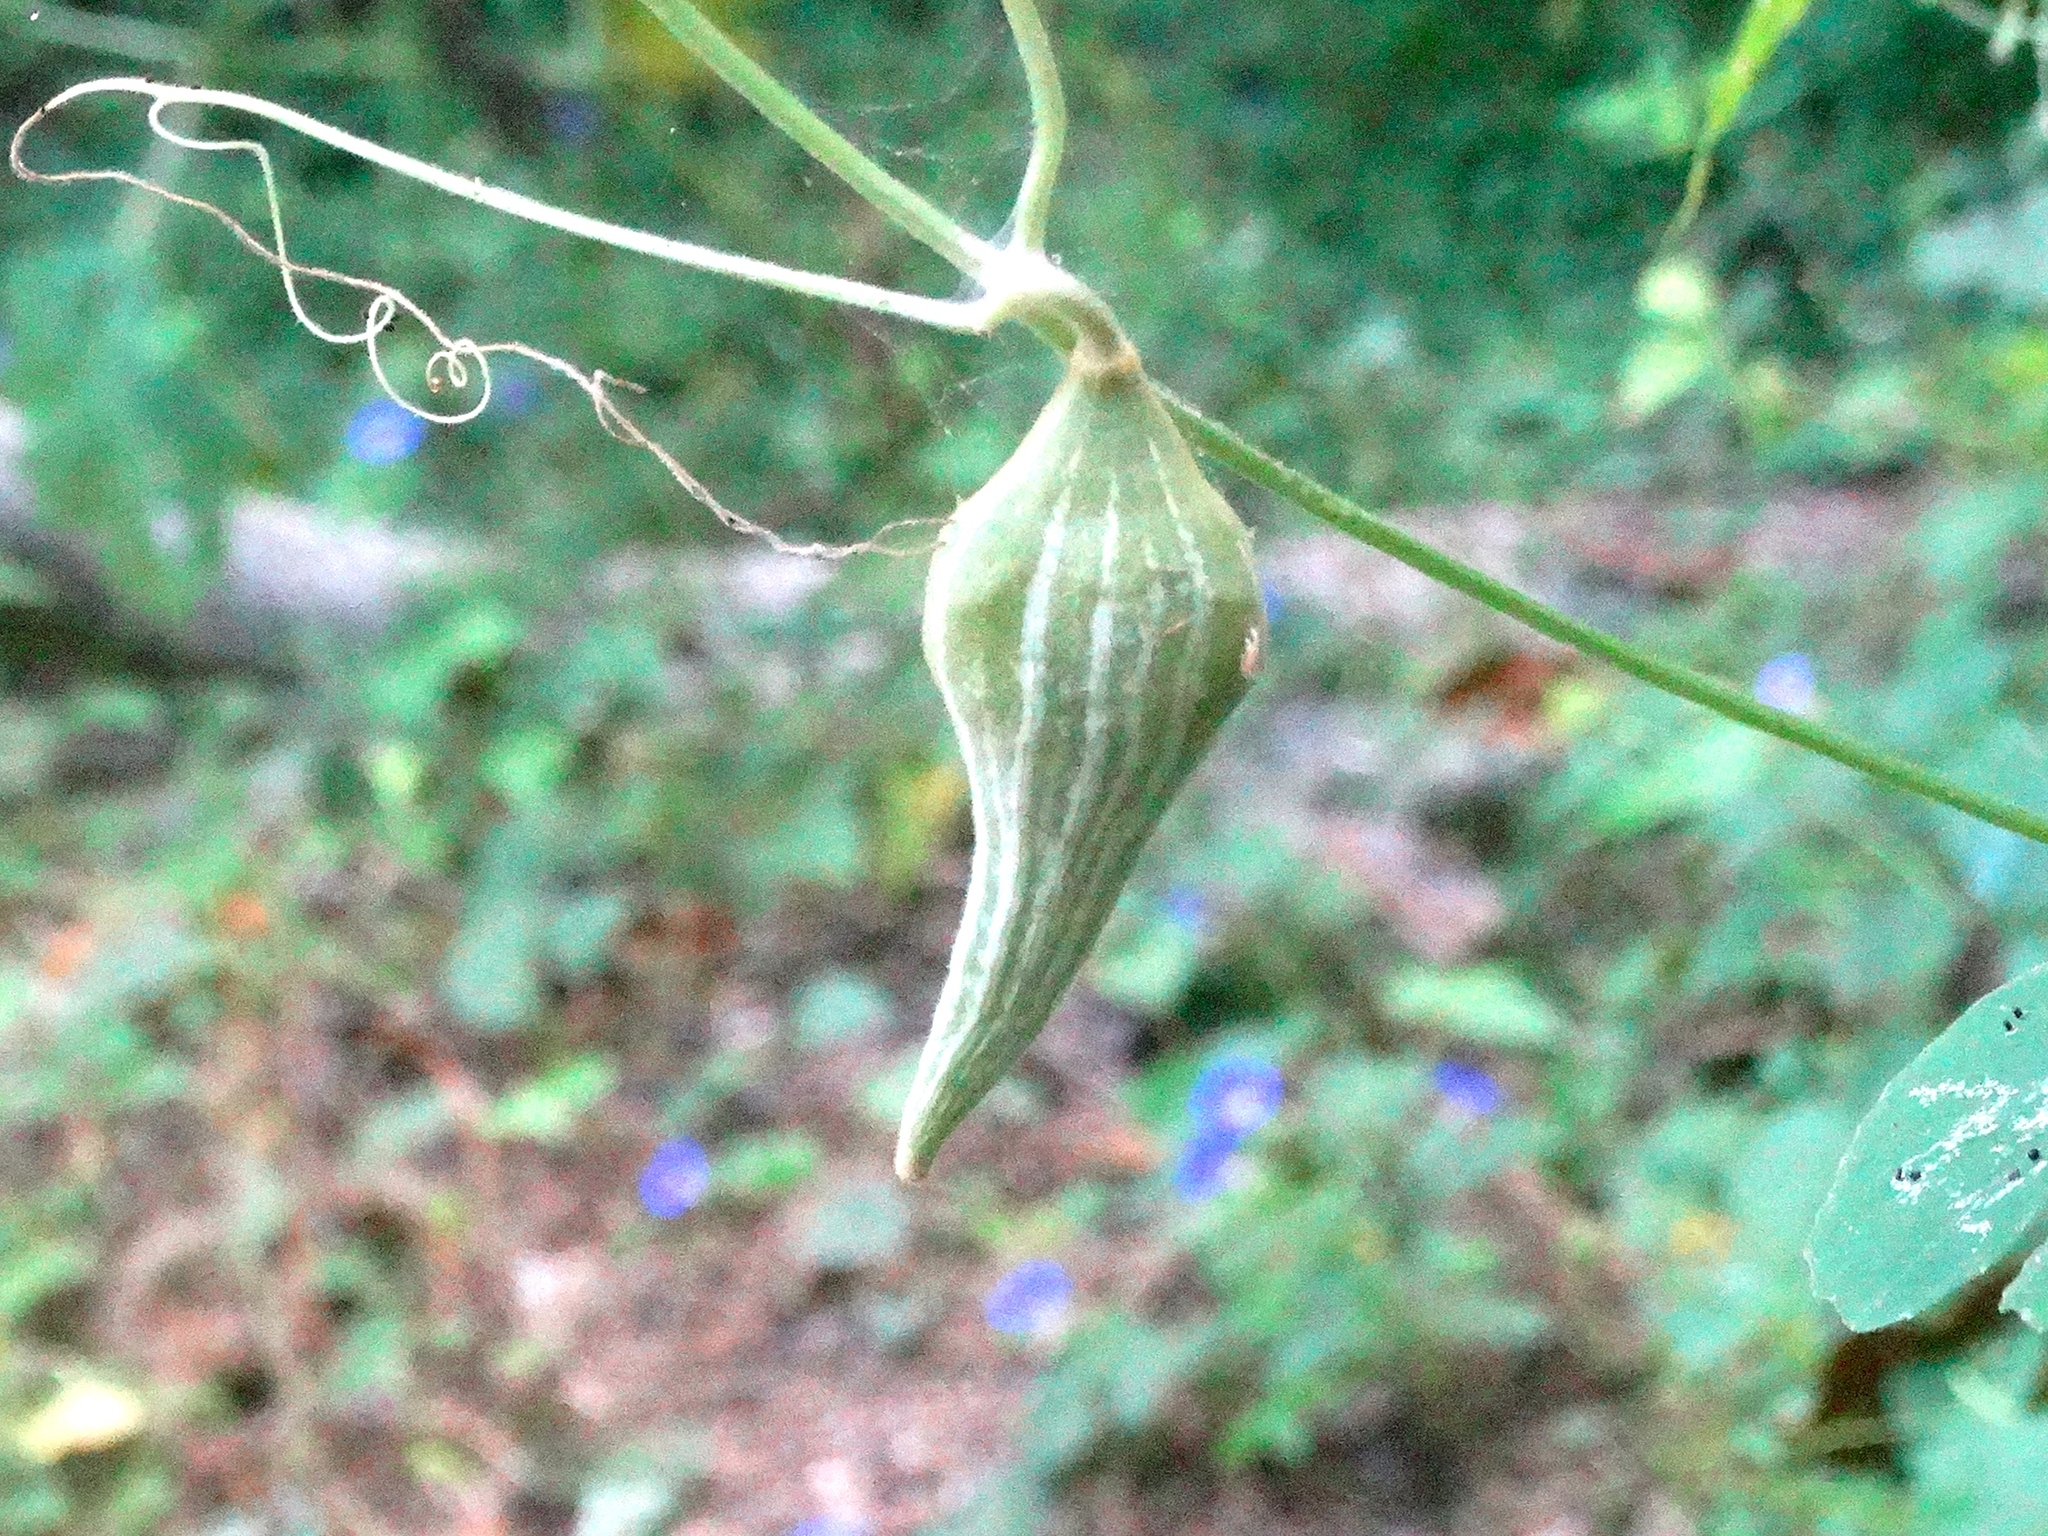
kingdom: Plantae
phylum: Tracheophyta
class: Magnoliopsida
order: Cucurbitales
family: Cucurbitaceae
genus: Schizocarpum
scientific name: Schizocarpum palmeri
